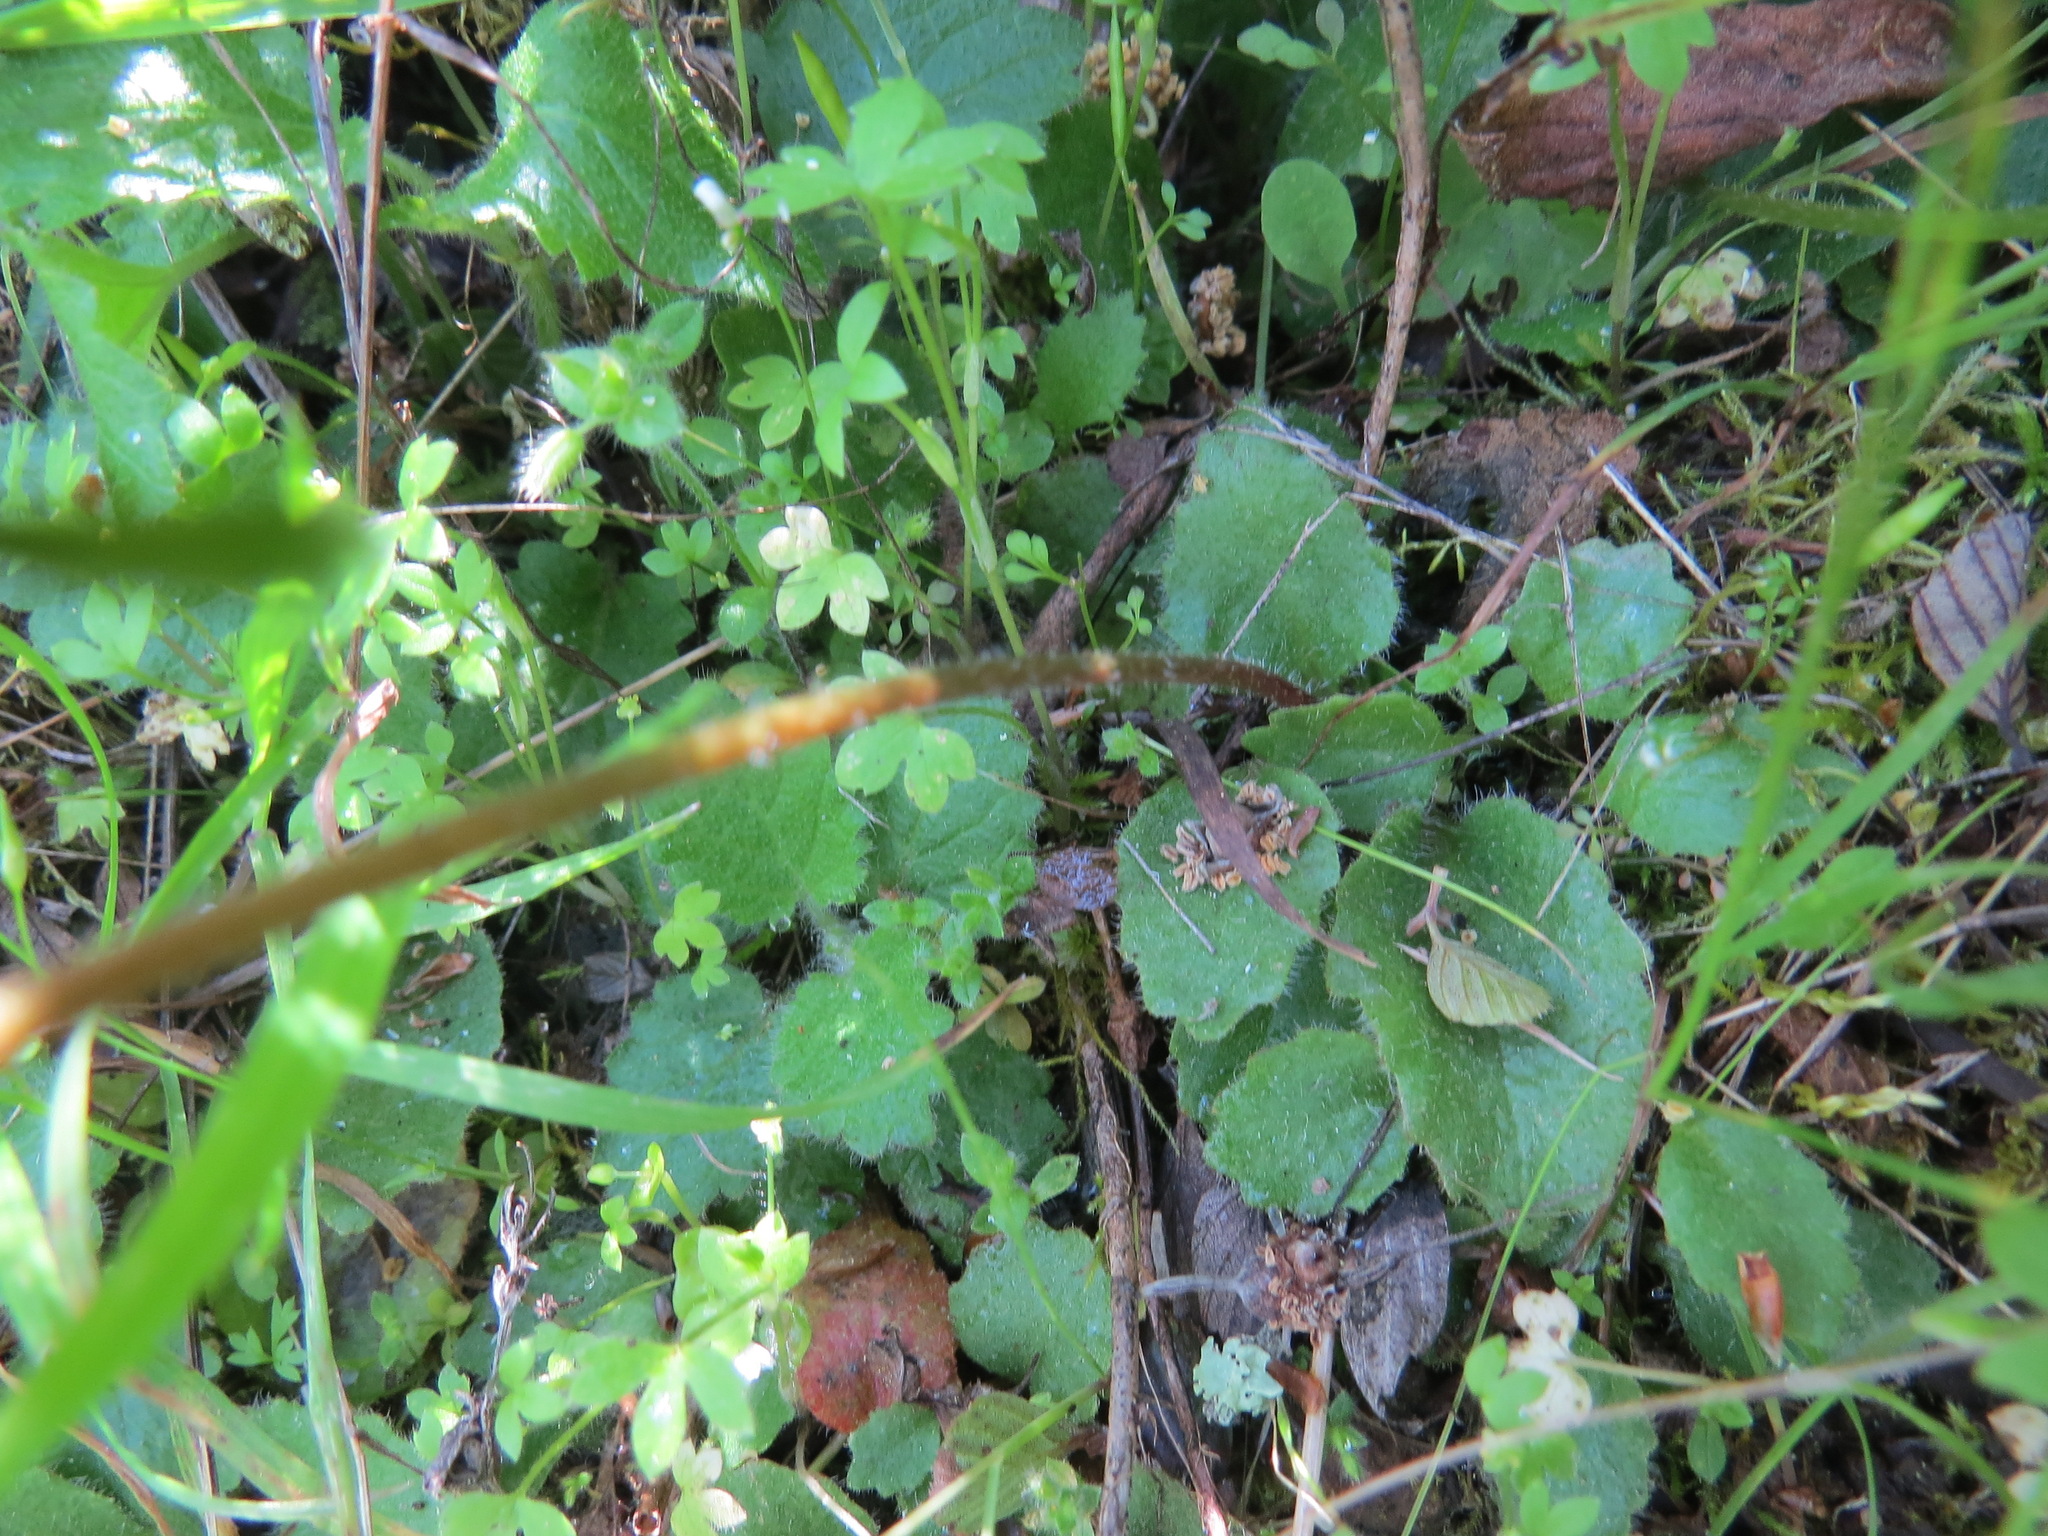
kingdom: Plantae
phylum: Tracheophyta
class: Magnoliopsida
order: Saxifragales
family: Saxifragaceae
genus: Micranthes
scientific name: Micranthes californica
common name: California saxifrage
